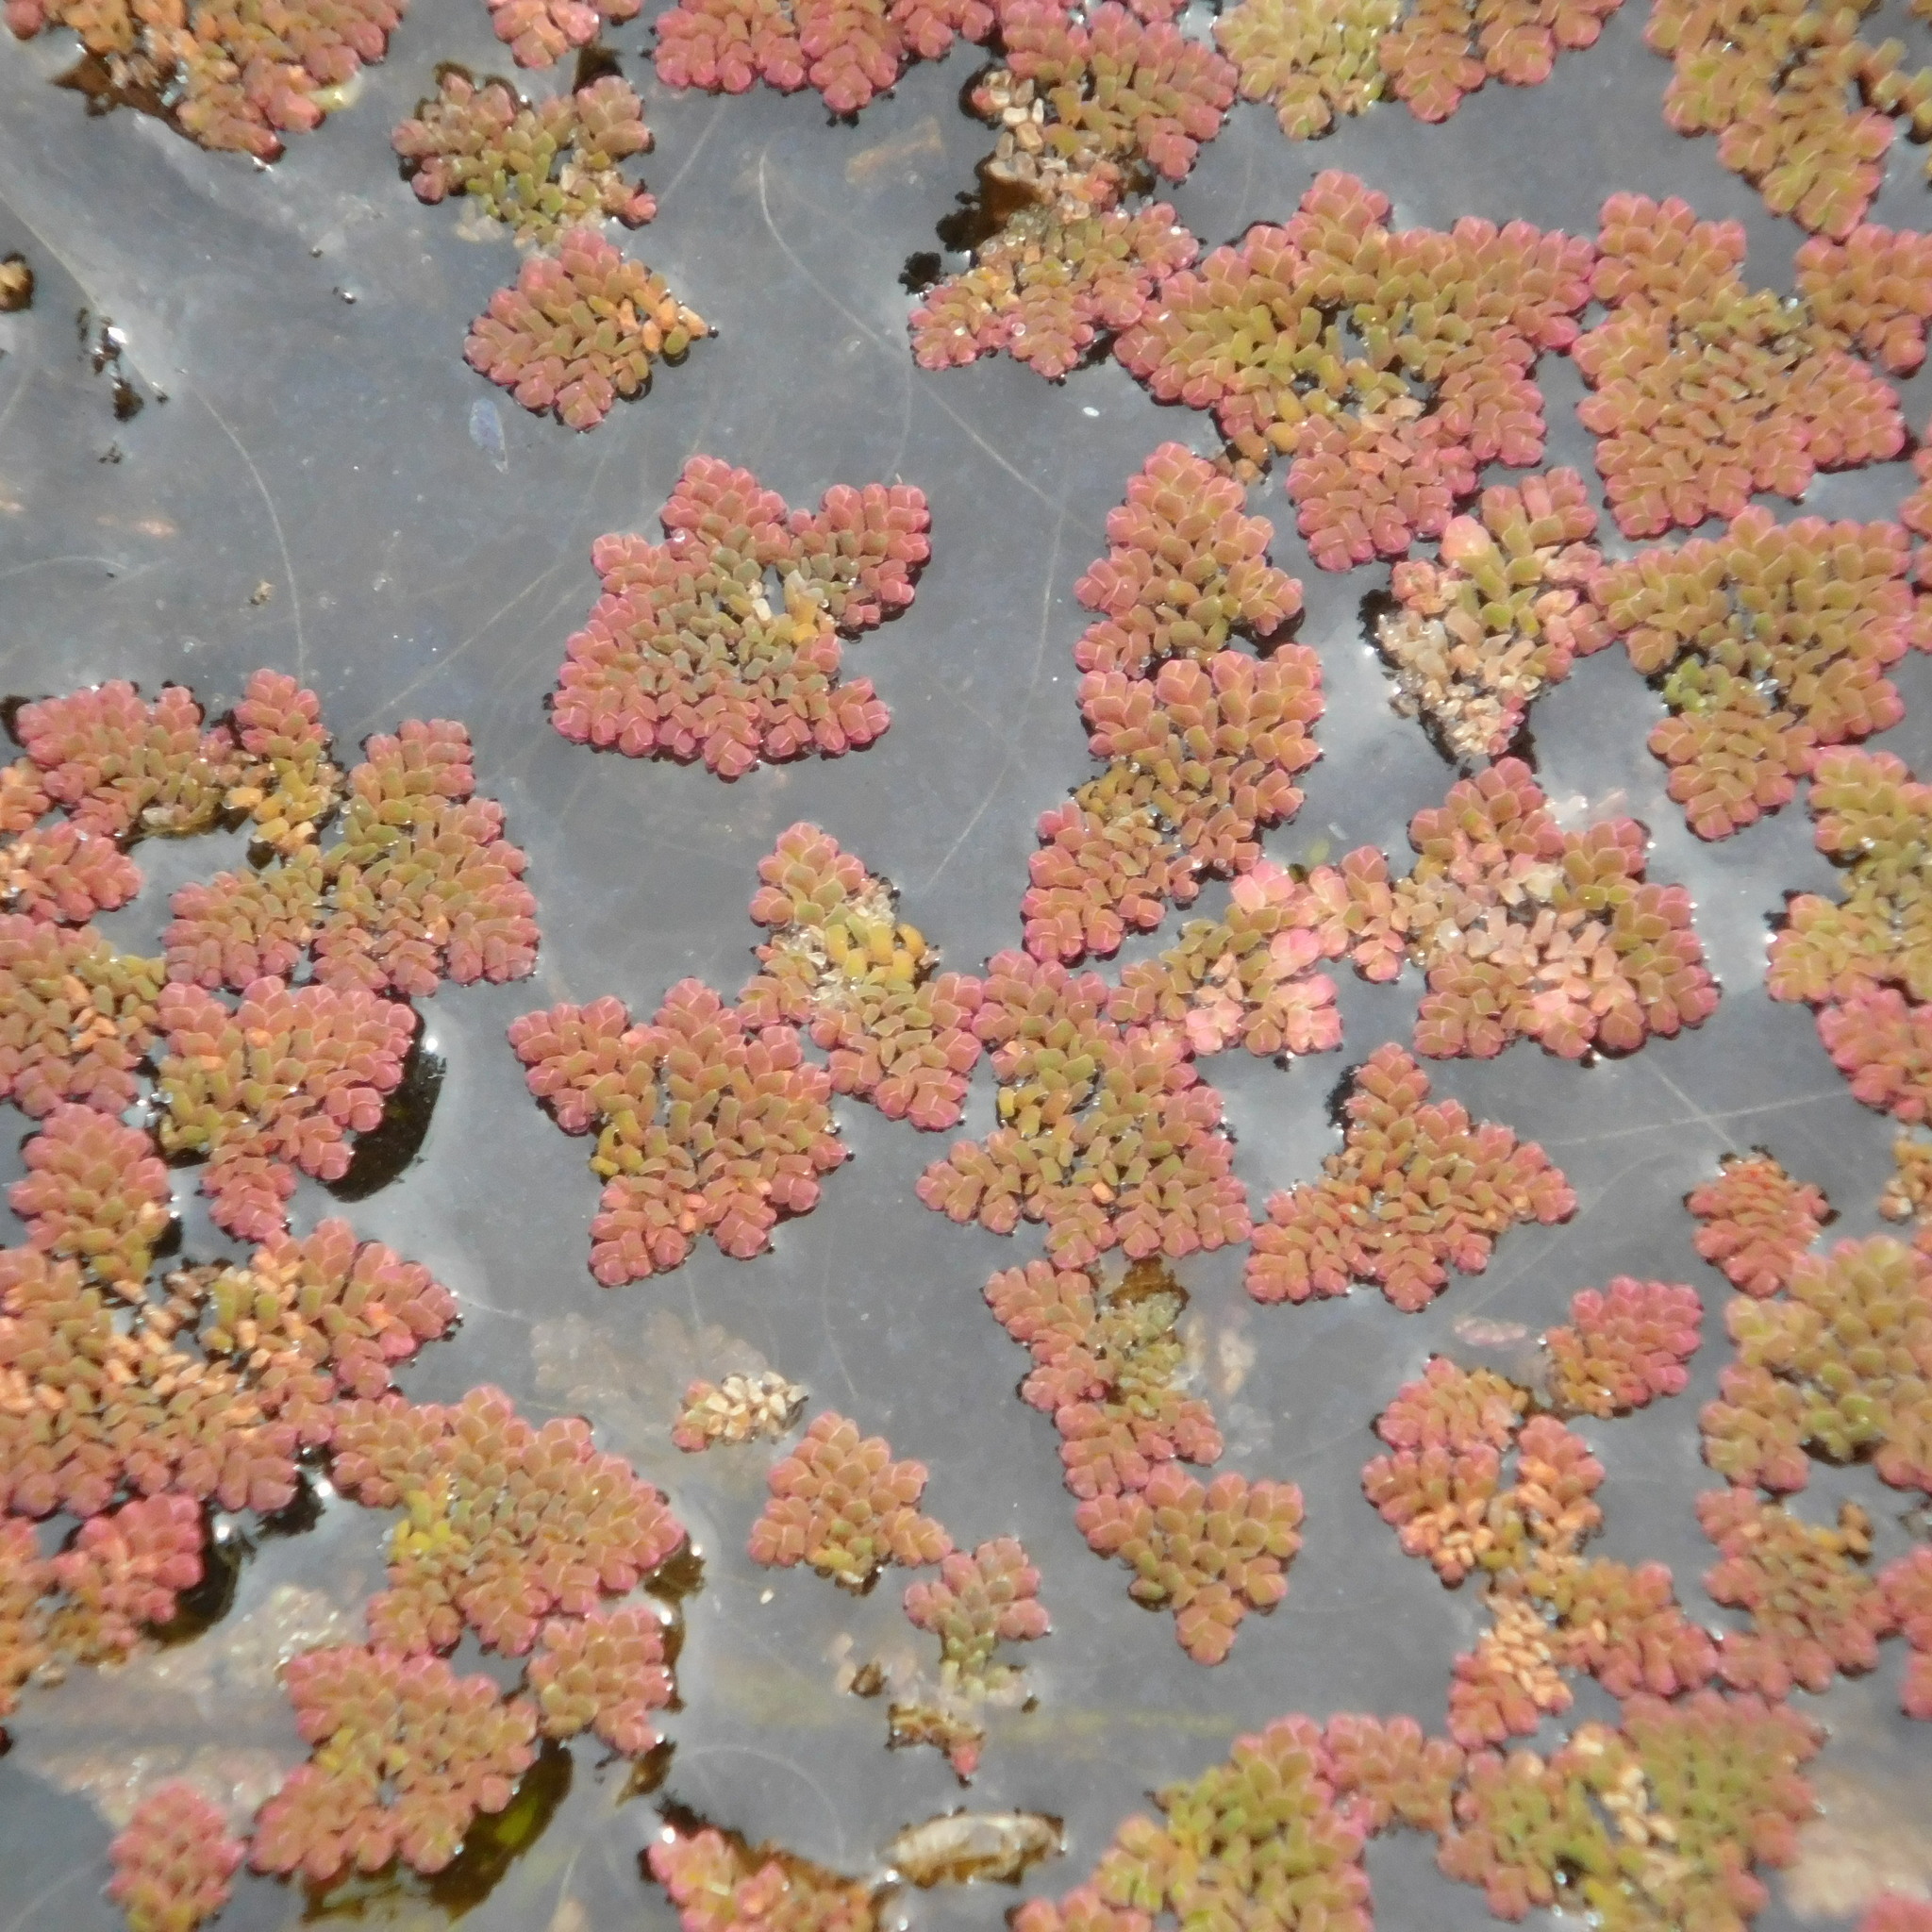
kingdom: Plantae
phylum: Tracheophyta
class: Polypodiopsida
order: Salviniales
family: Salviniaceae
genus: Azolla
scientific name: Azolla pinnata
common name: Ferny azolla
